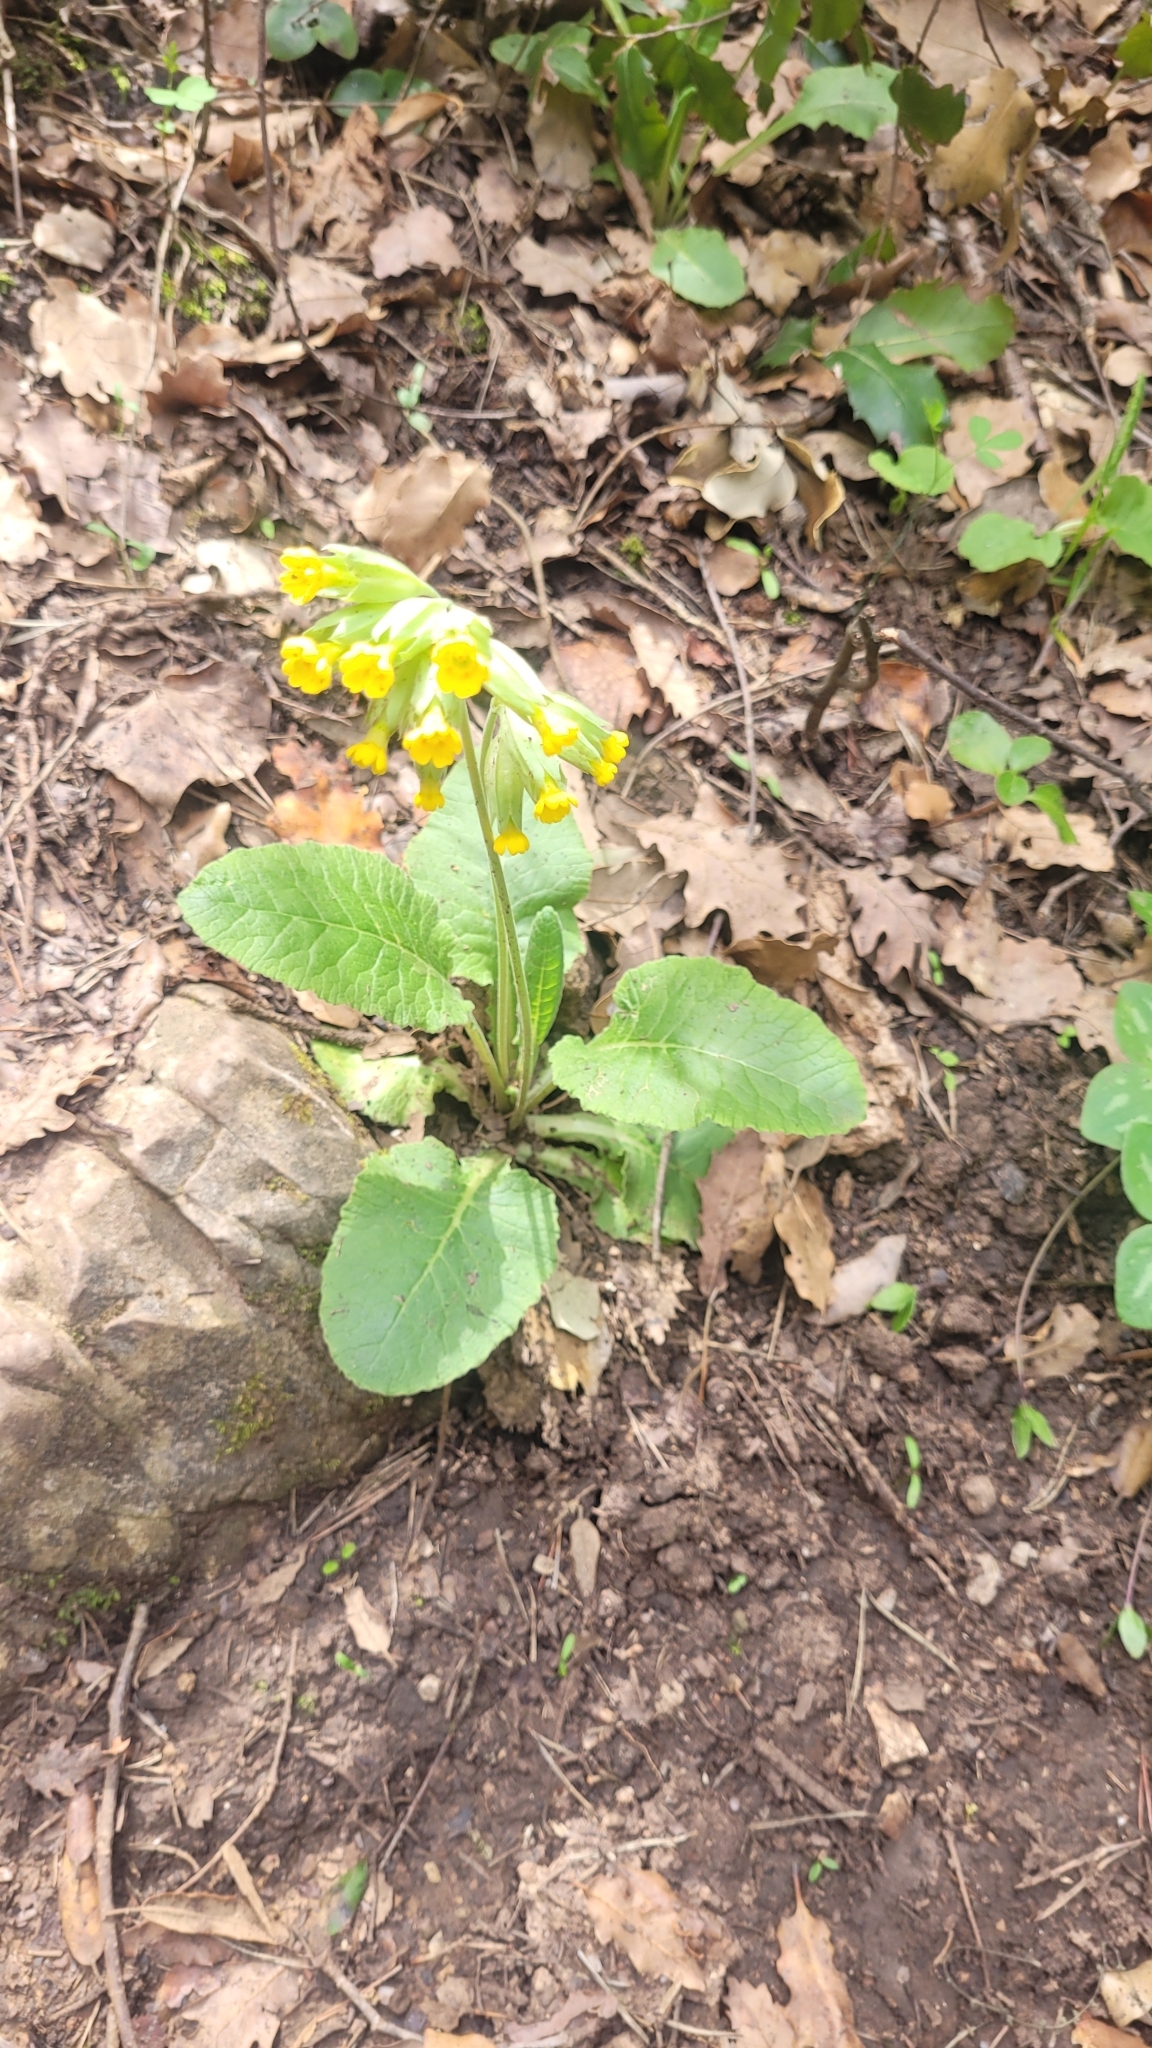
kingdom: Plantae
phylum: Tracheophyta
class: Magnoliopsida
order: Ericales
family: Primulaceae
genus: Primula
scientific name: Primula veris
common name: Cowslip
